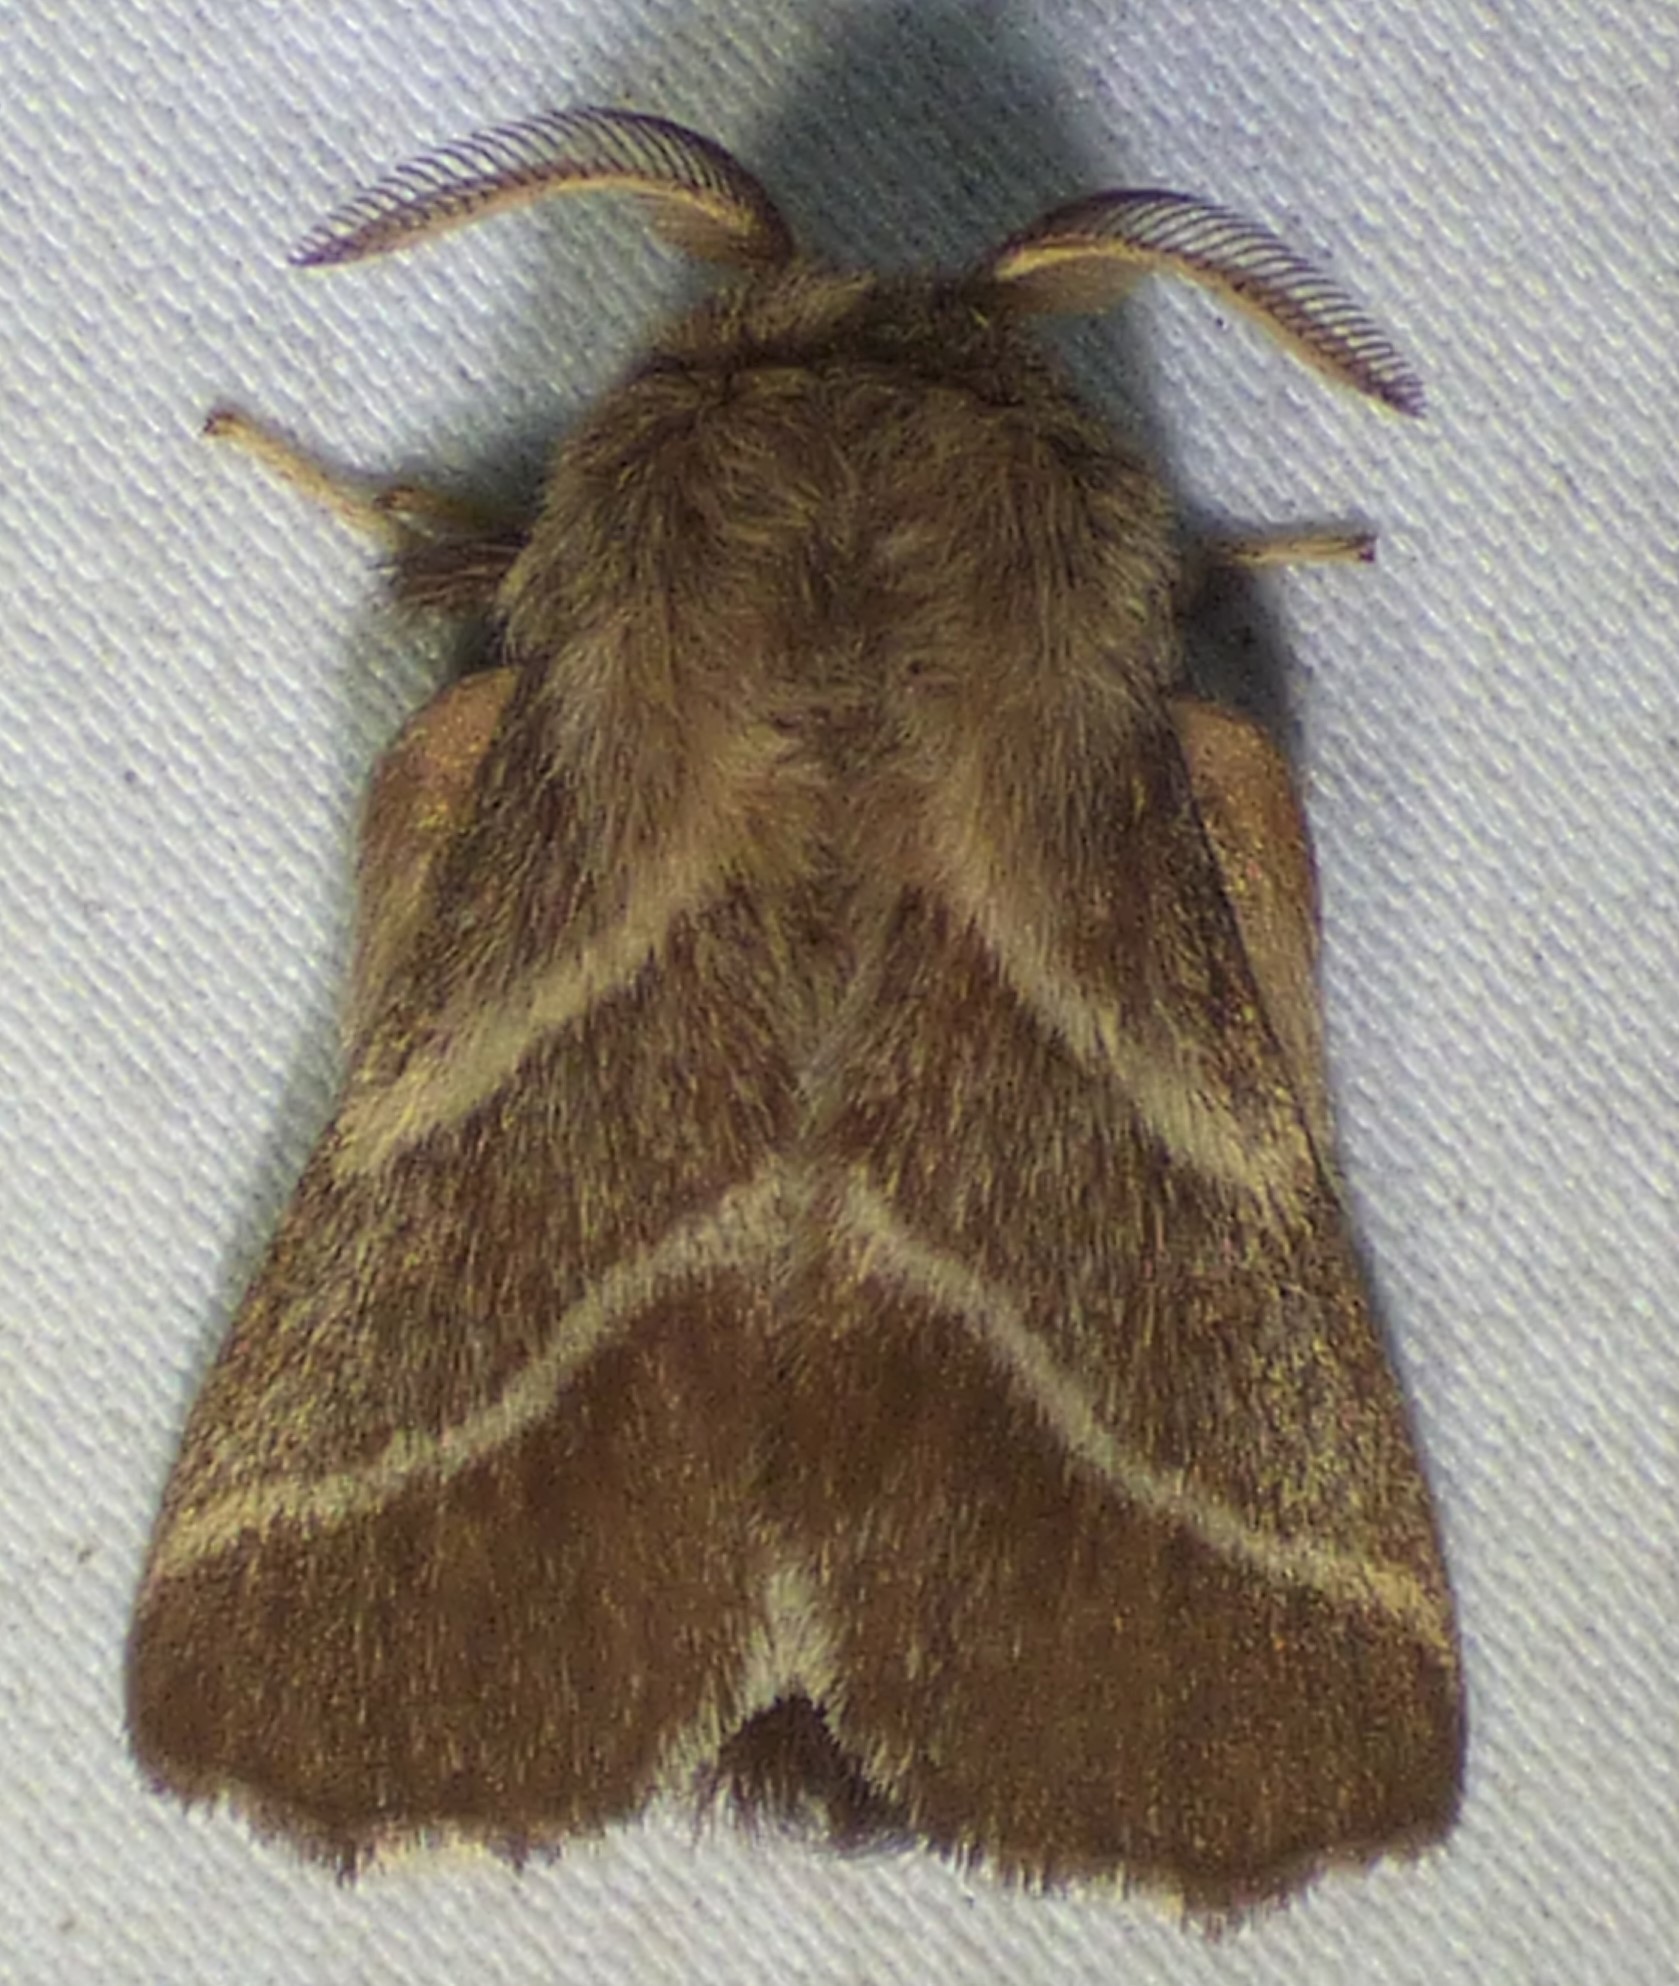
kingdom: Animalia
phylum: Arthropoda
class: Insecta
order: Lepidoptera
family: Lasiocampidae
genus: Malacosoma
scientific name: Malacosoma americana
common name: Eastern tent caterpillar moth
